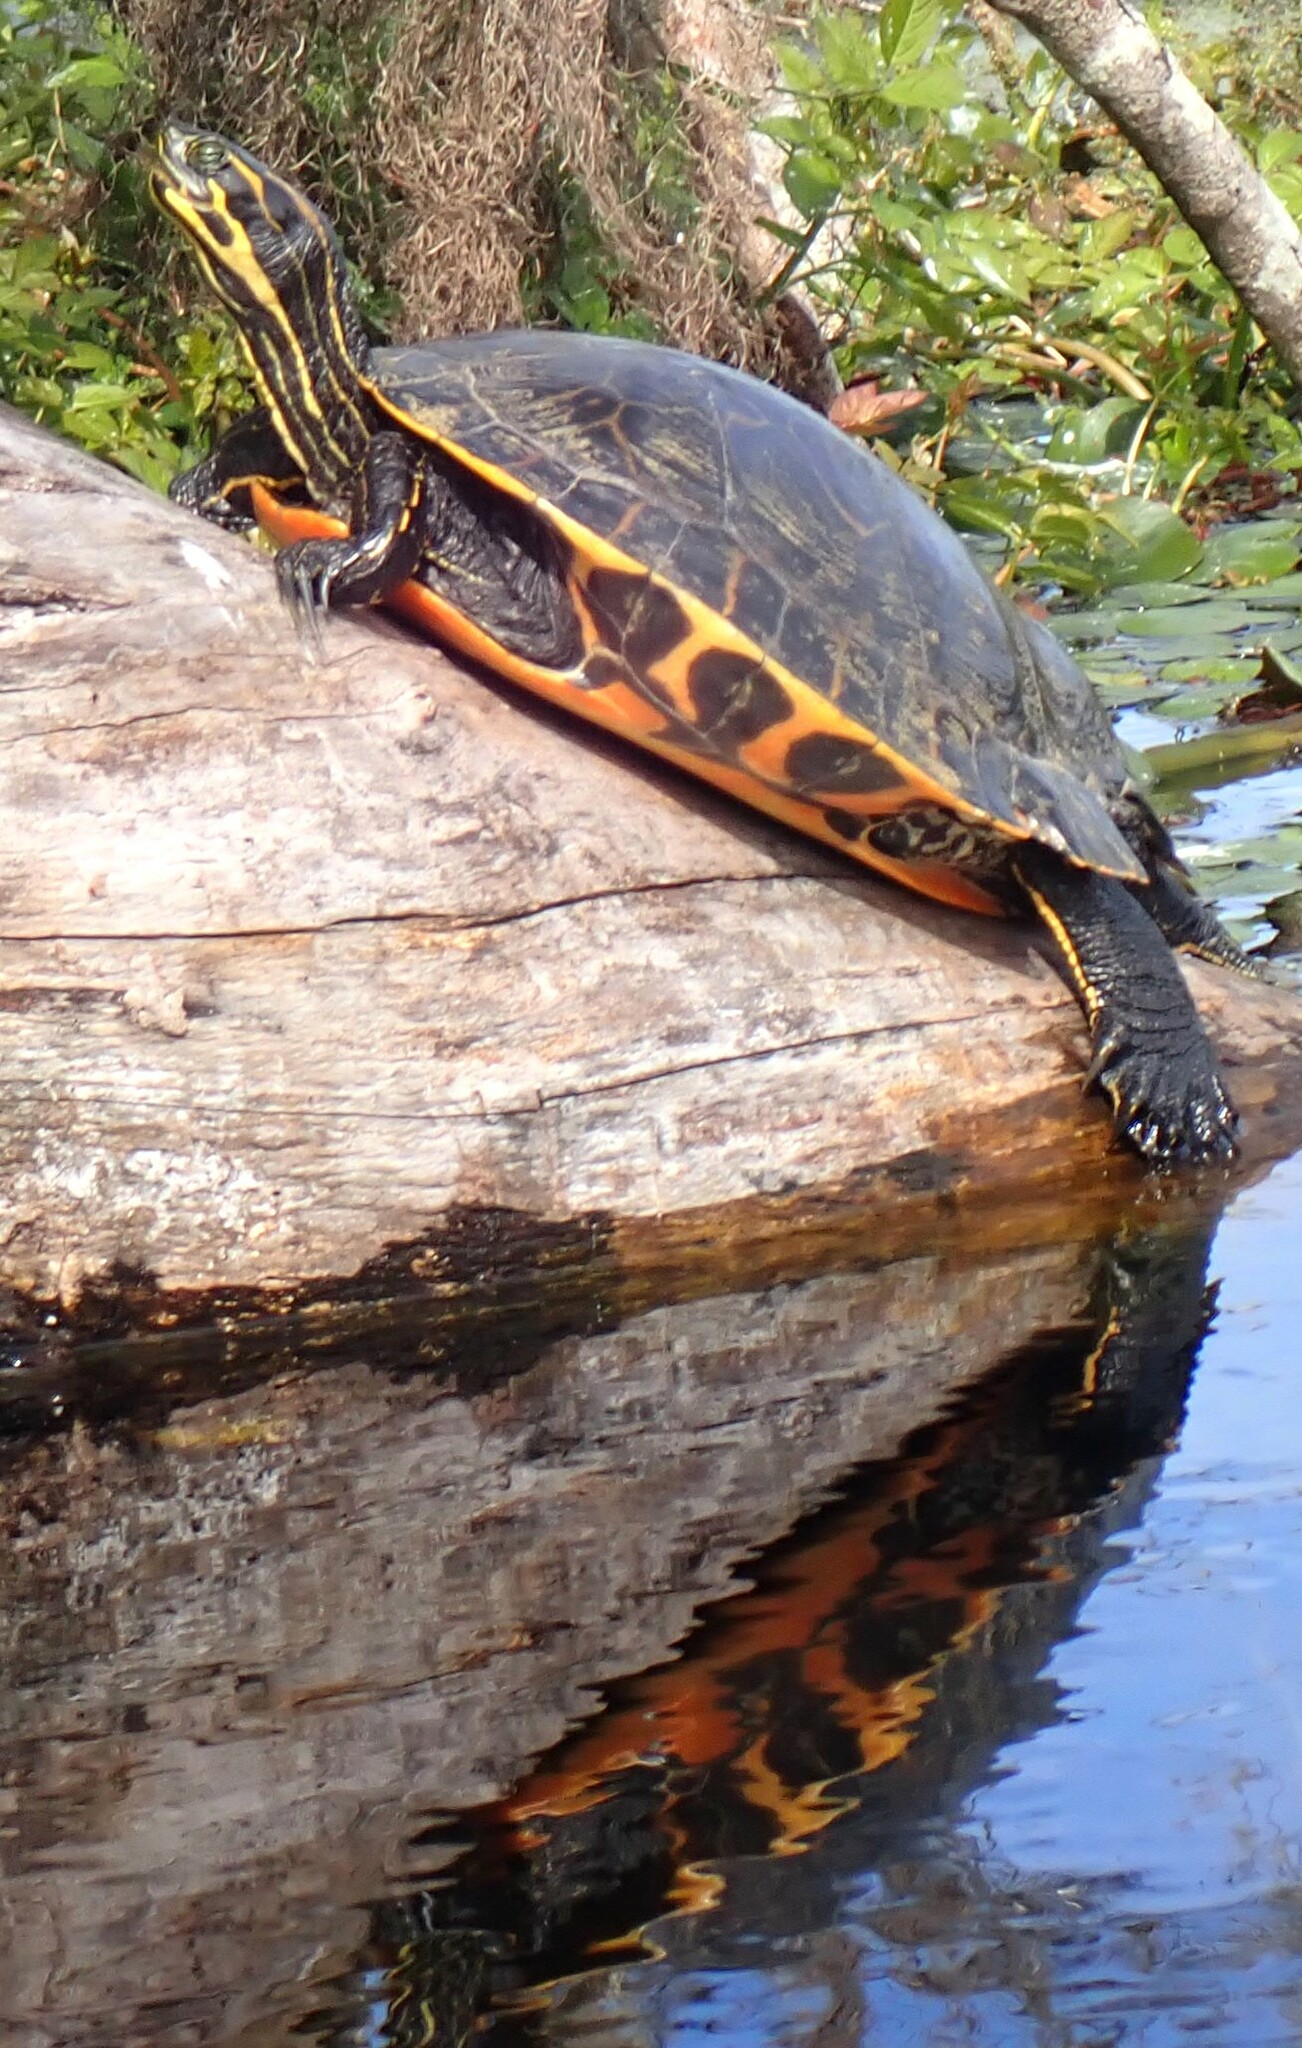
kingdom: Animalia
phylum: Chordata
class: Testudines
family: Emydidae
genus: Pseudemys
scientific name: Pseudemys concinna
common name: Eastern river cooter
